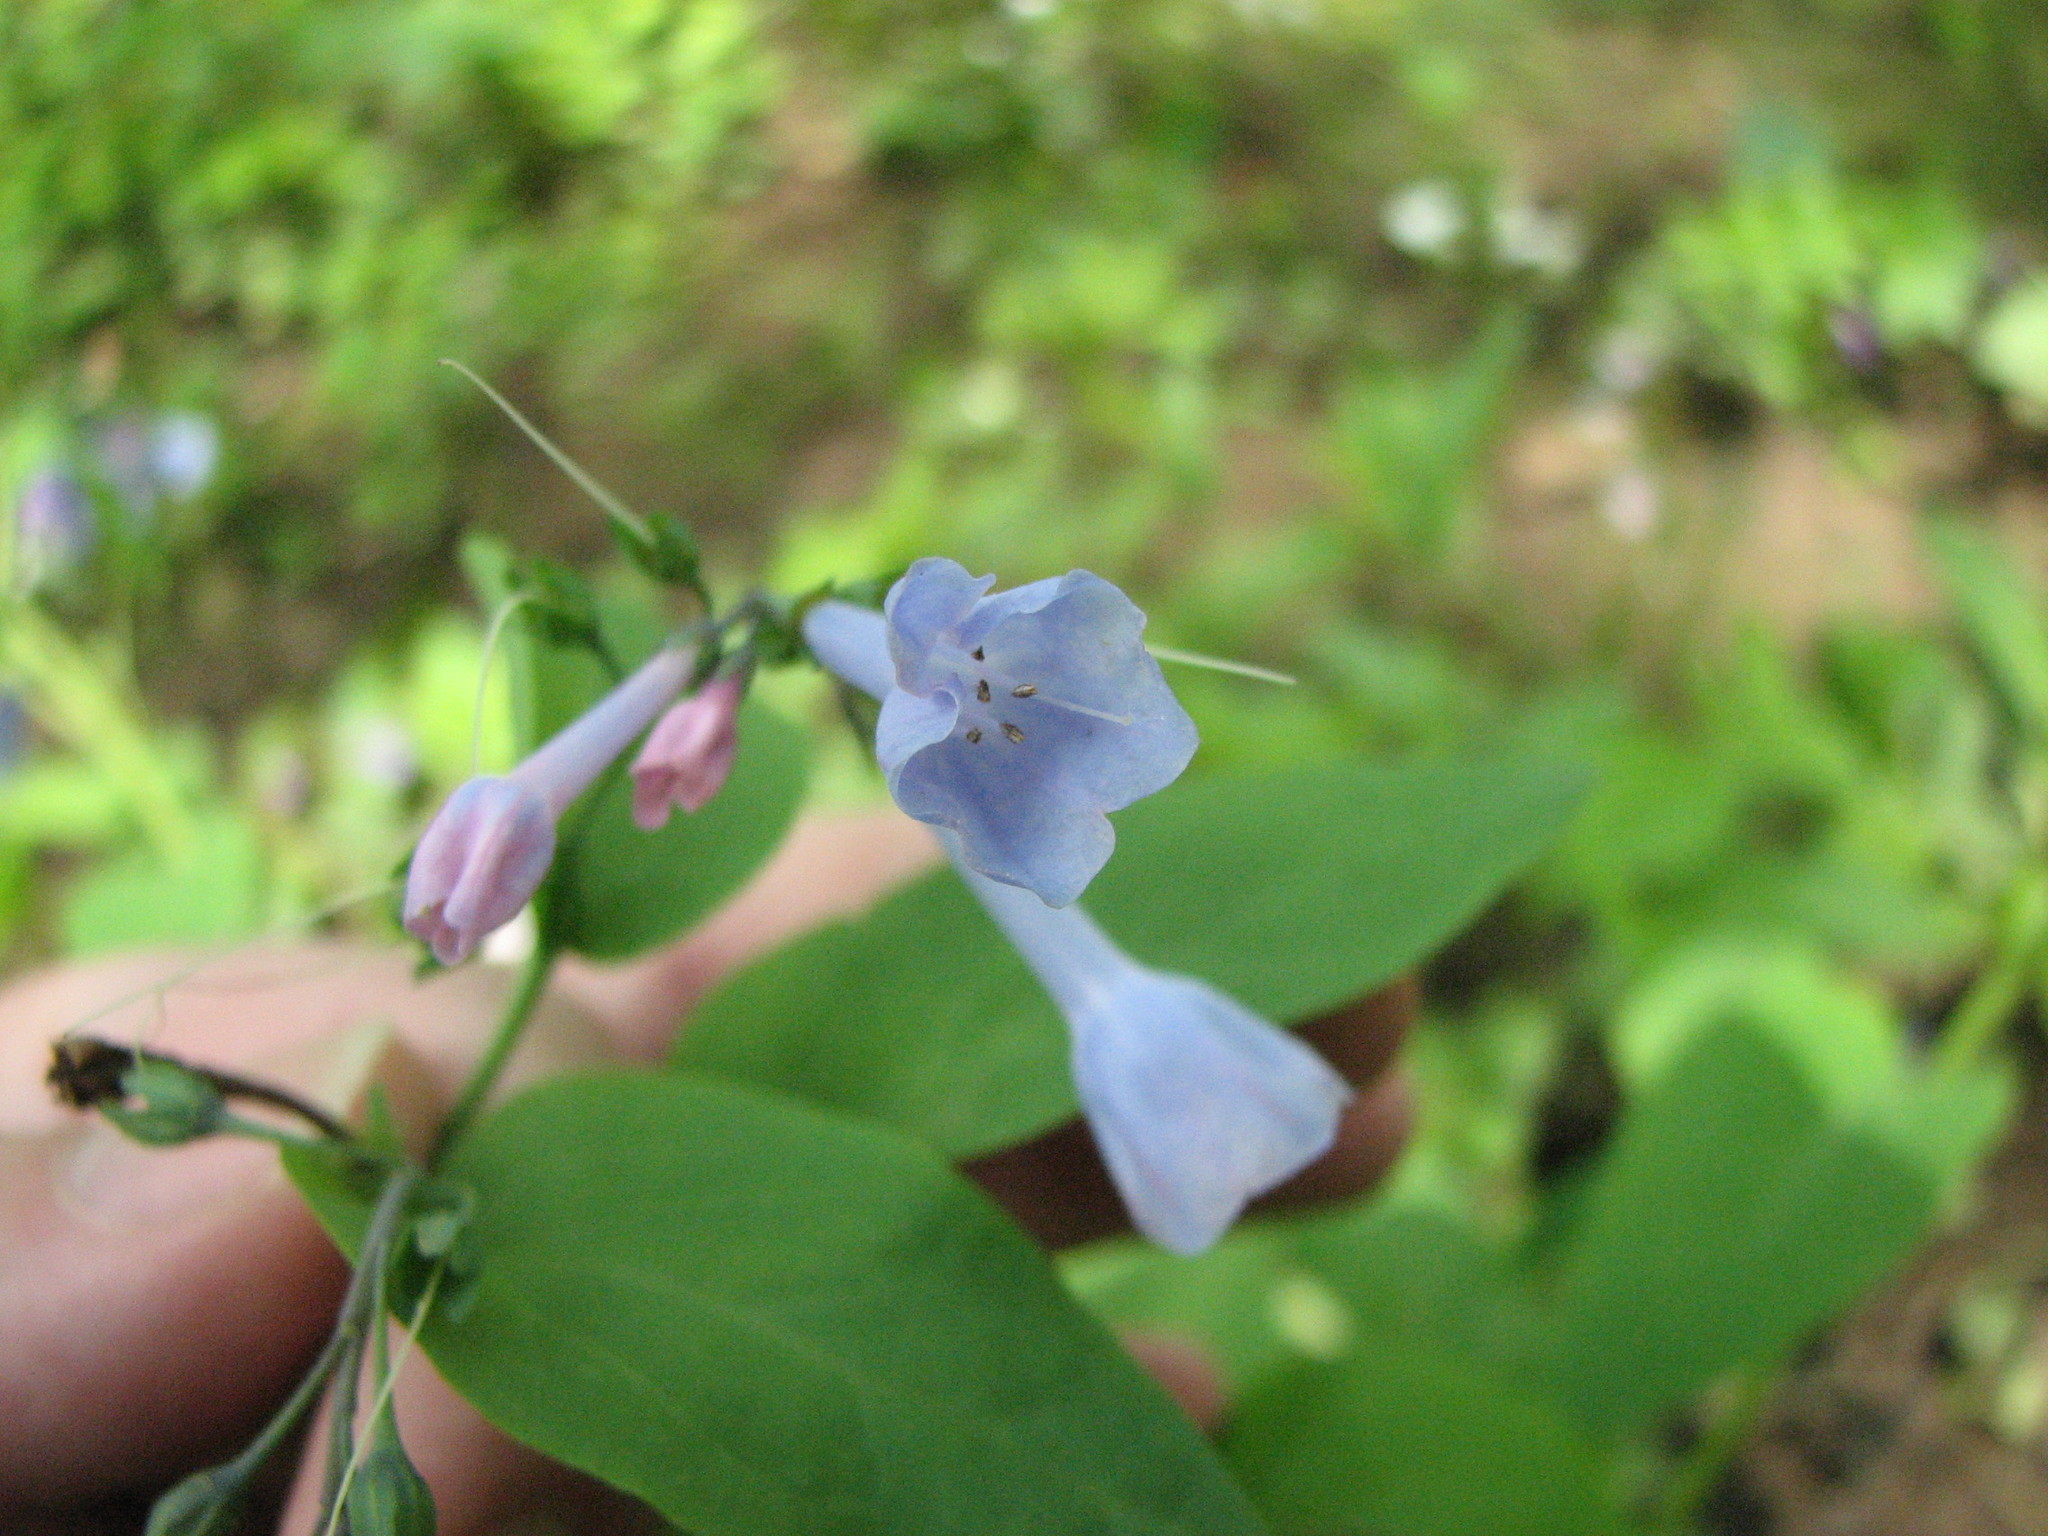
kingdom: Plantae
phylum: Tracheophyta
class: Magnoliopsida
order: Boraginales
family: Boraginaceae
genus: Mertensia
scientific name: Mertensia virginica
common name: Virginia bluebells
